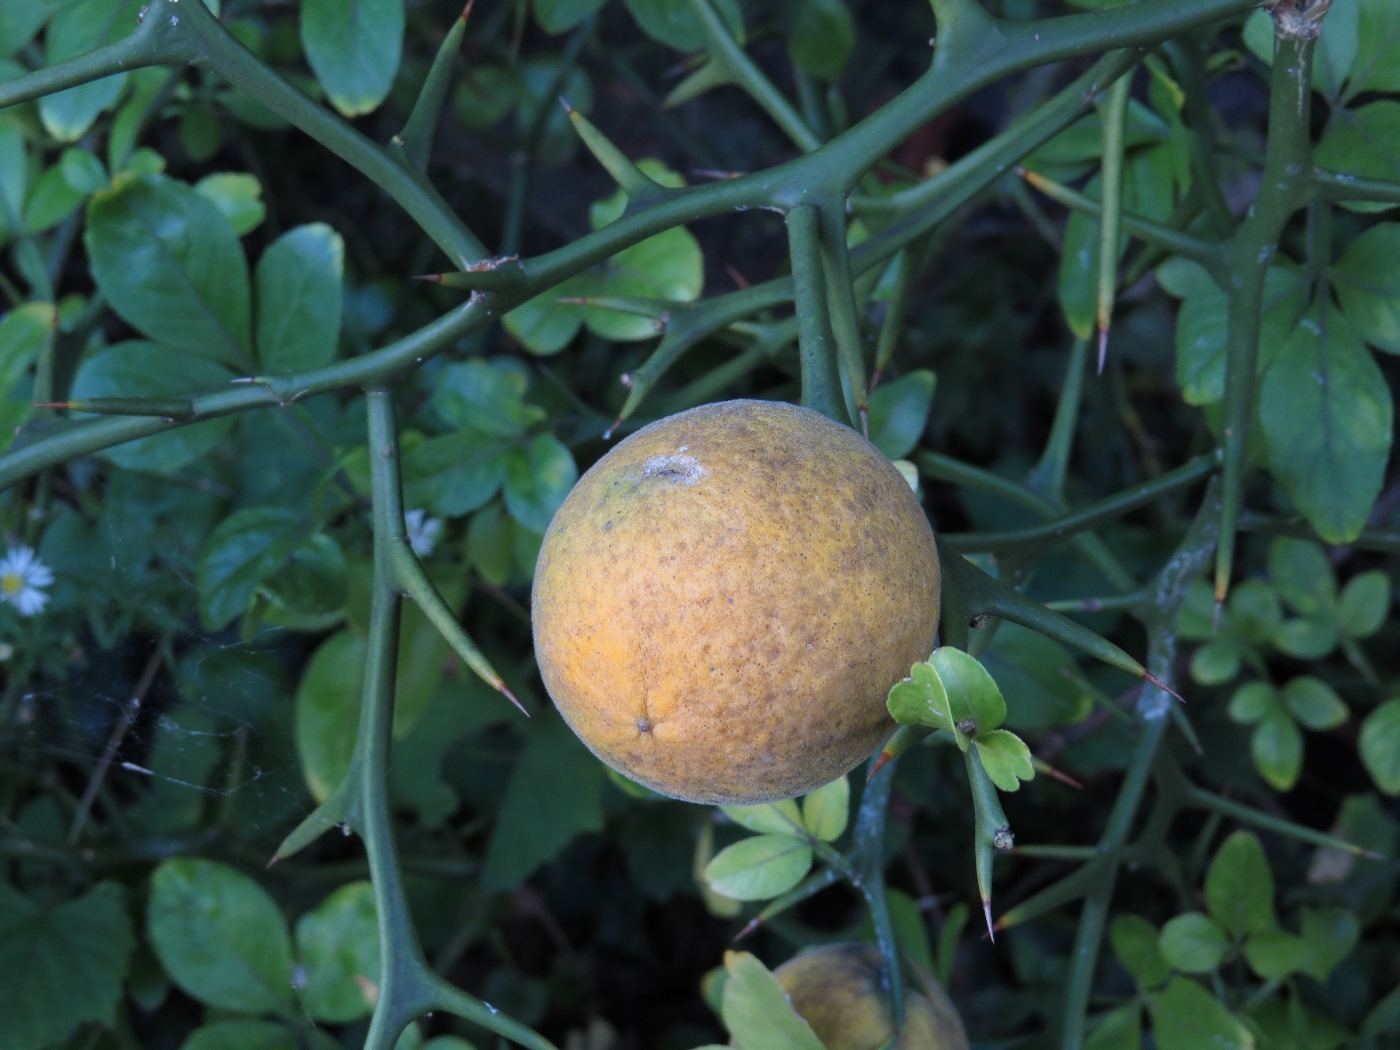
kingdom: Plantae
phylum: Tracheophyta
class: Magnoliopsida
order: Sapindales
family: Rutaceae
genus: Citrus
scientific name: Citrus trifoliata
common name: Japanese bitter-orange
